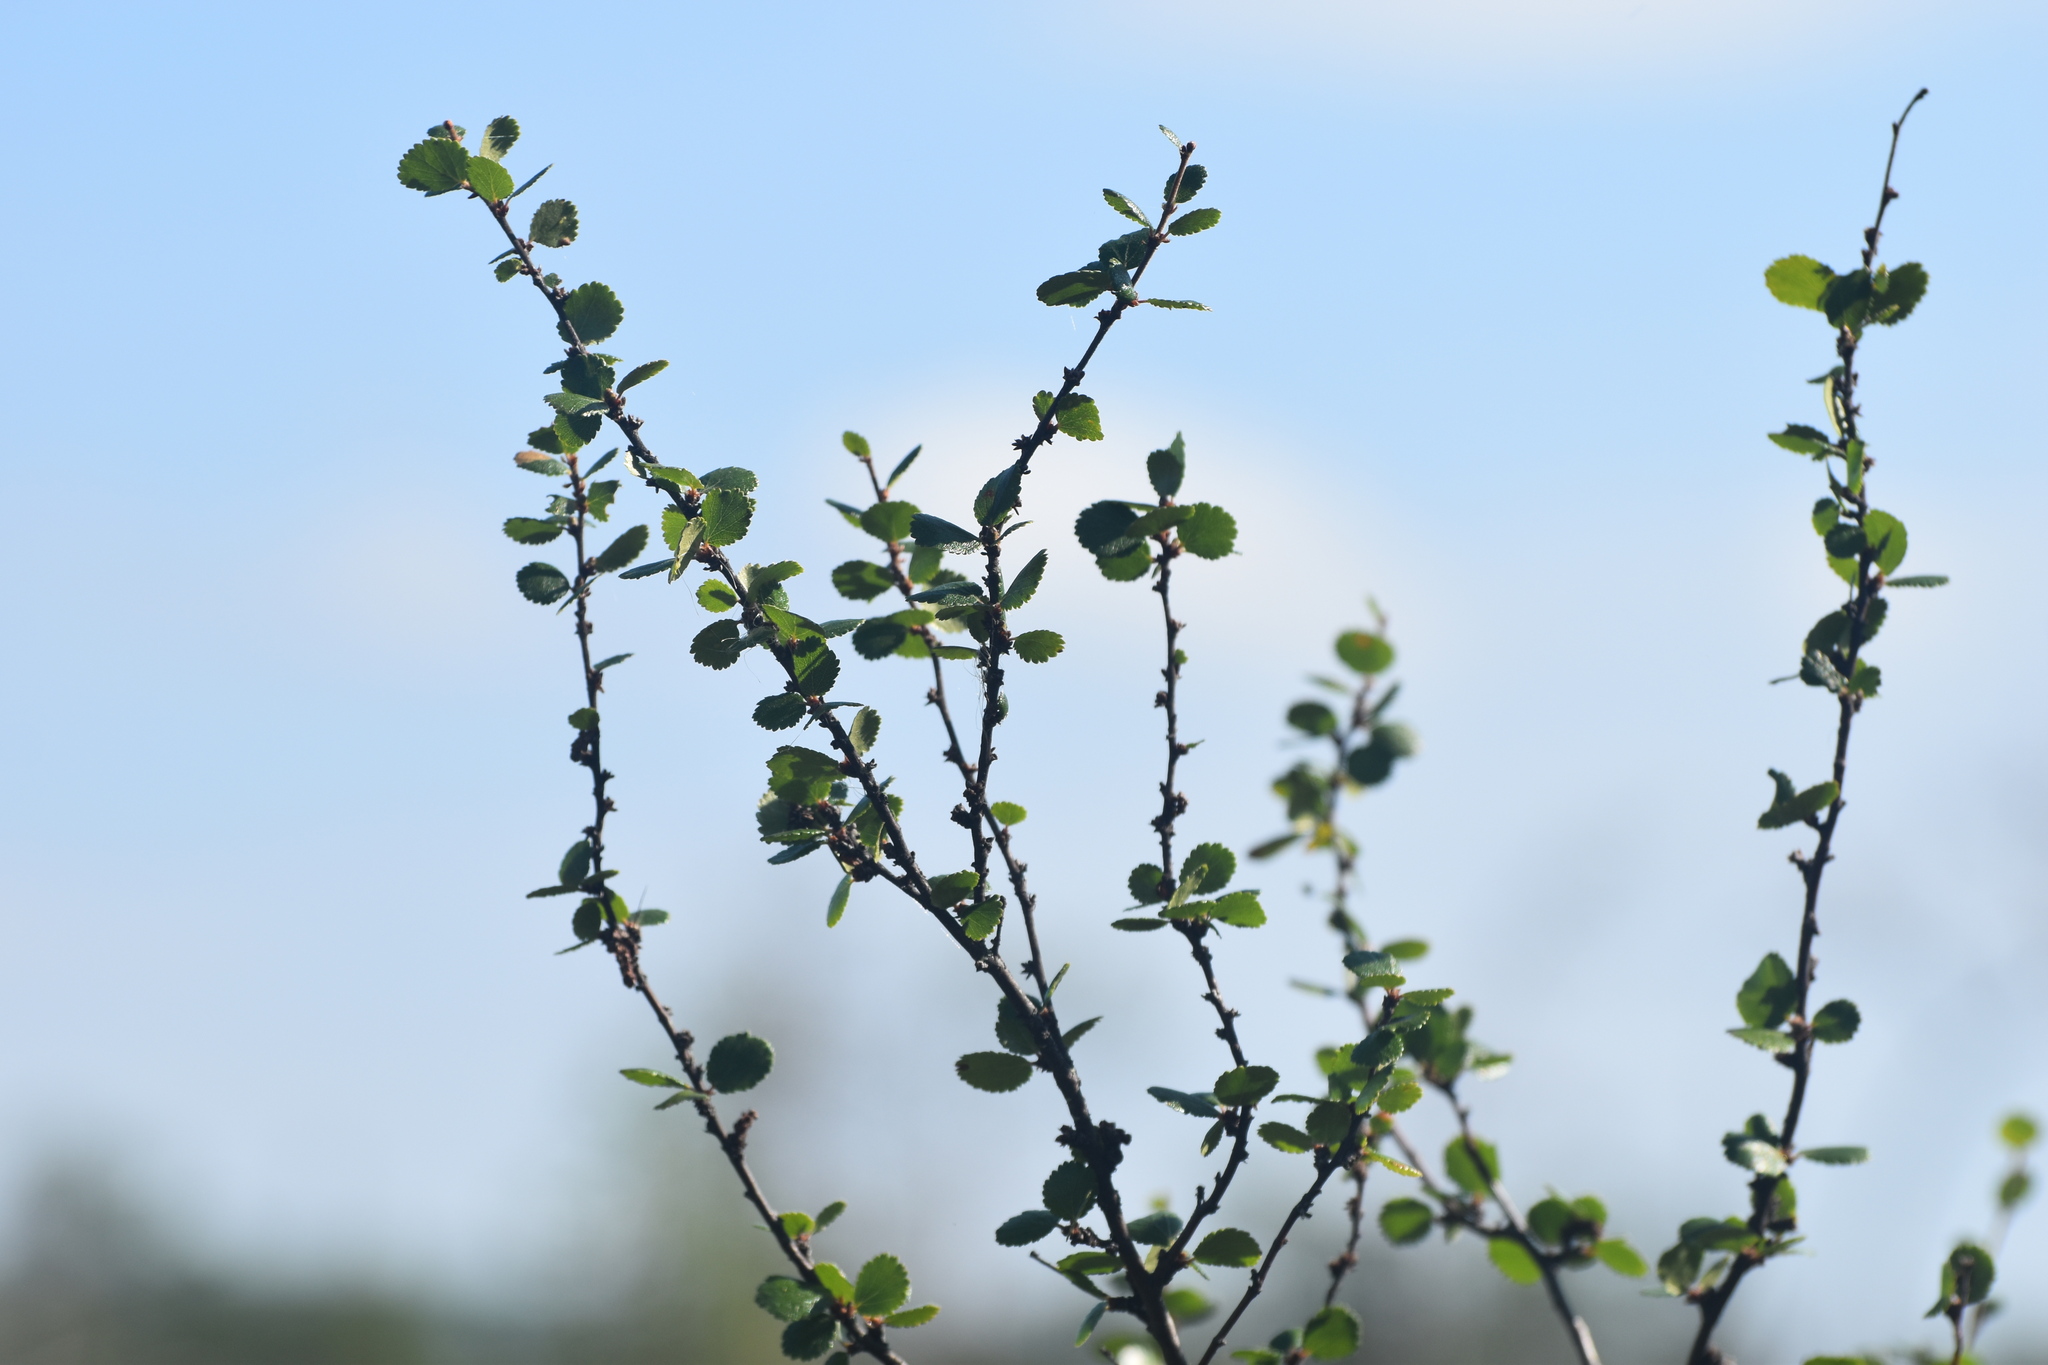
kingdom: Plantae
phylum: Tracheophyta
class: Magnoliopsida
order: Fagales
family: Betulaceae
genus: Betula
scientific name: Betula nana
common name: Arctic dwarf birch
